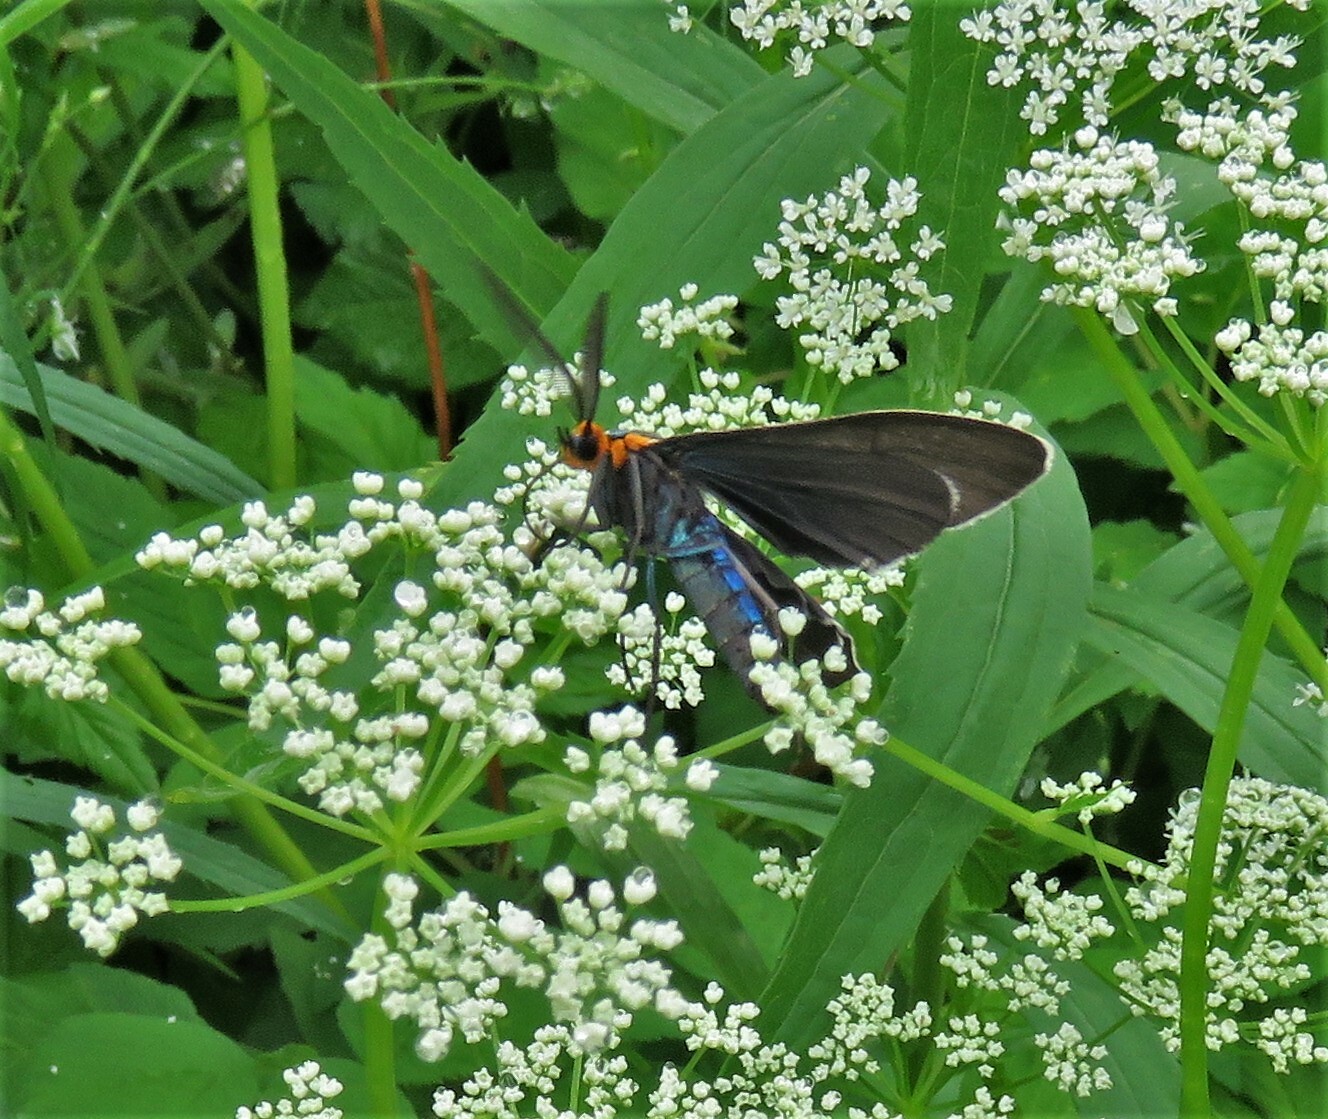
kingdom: Animalia
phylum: Arthropoda
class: Insecta
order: Lepidoptera
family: Erebidae
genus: Ctenucha
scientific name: Ctenucha virginica
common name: Virginia ctenucha moth
